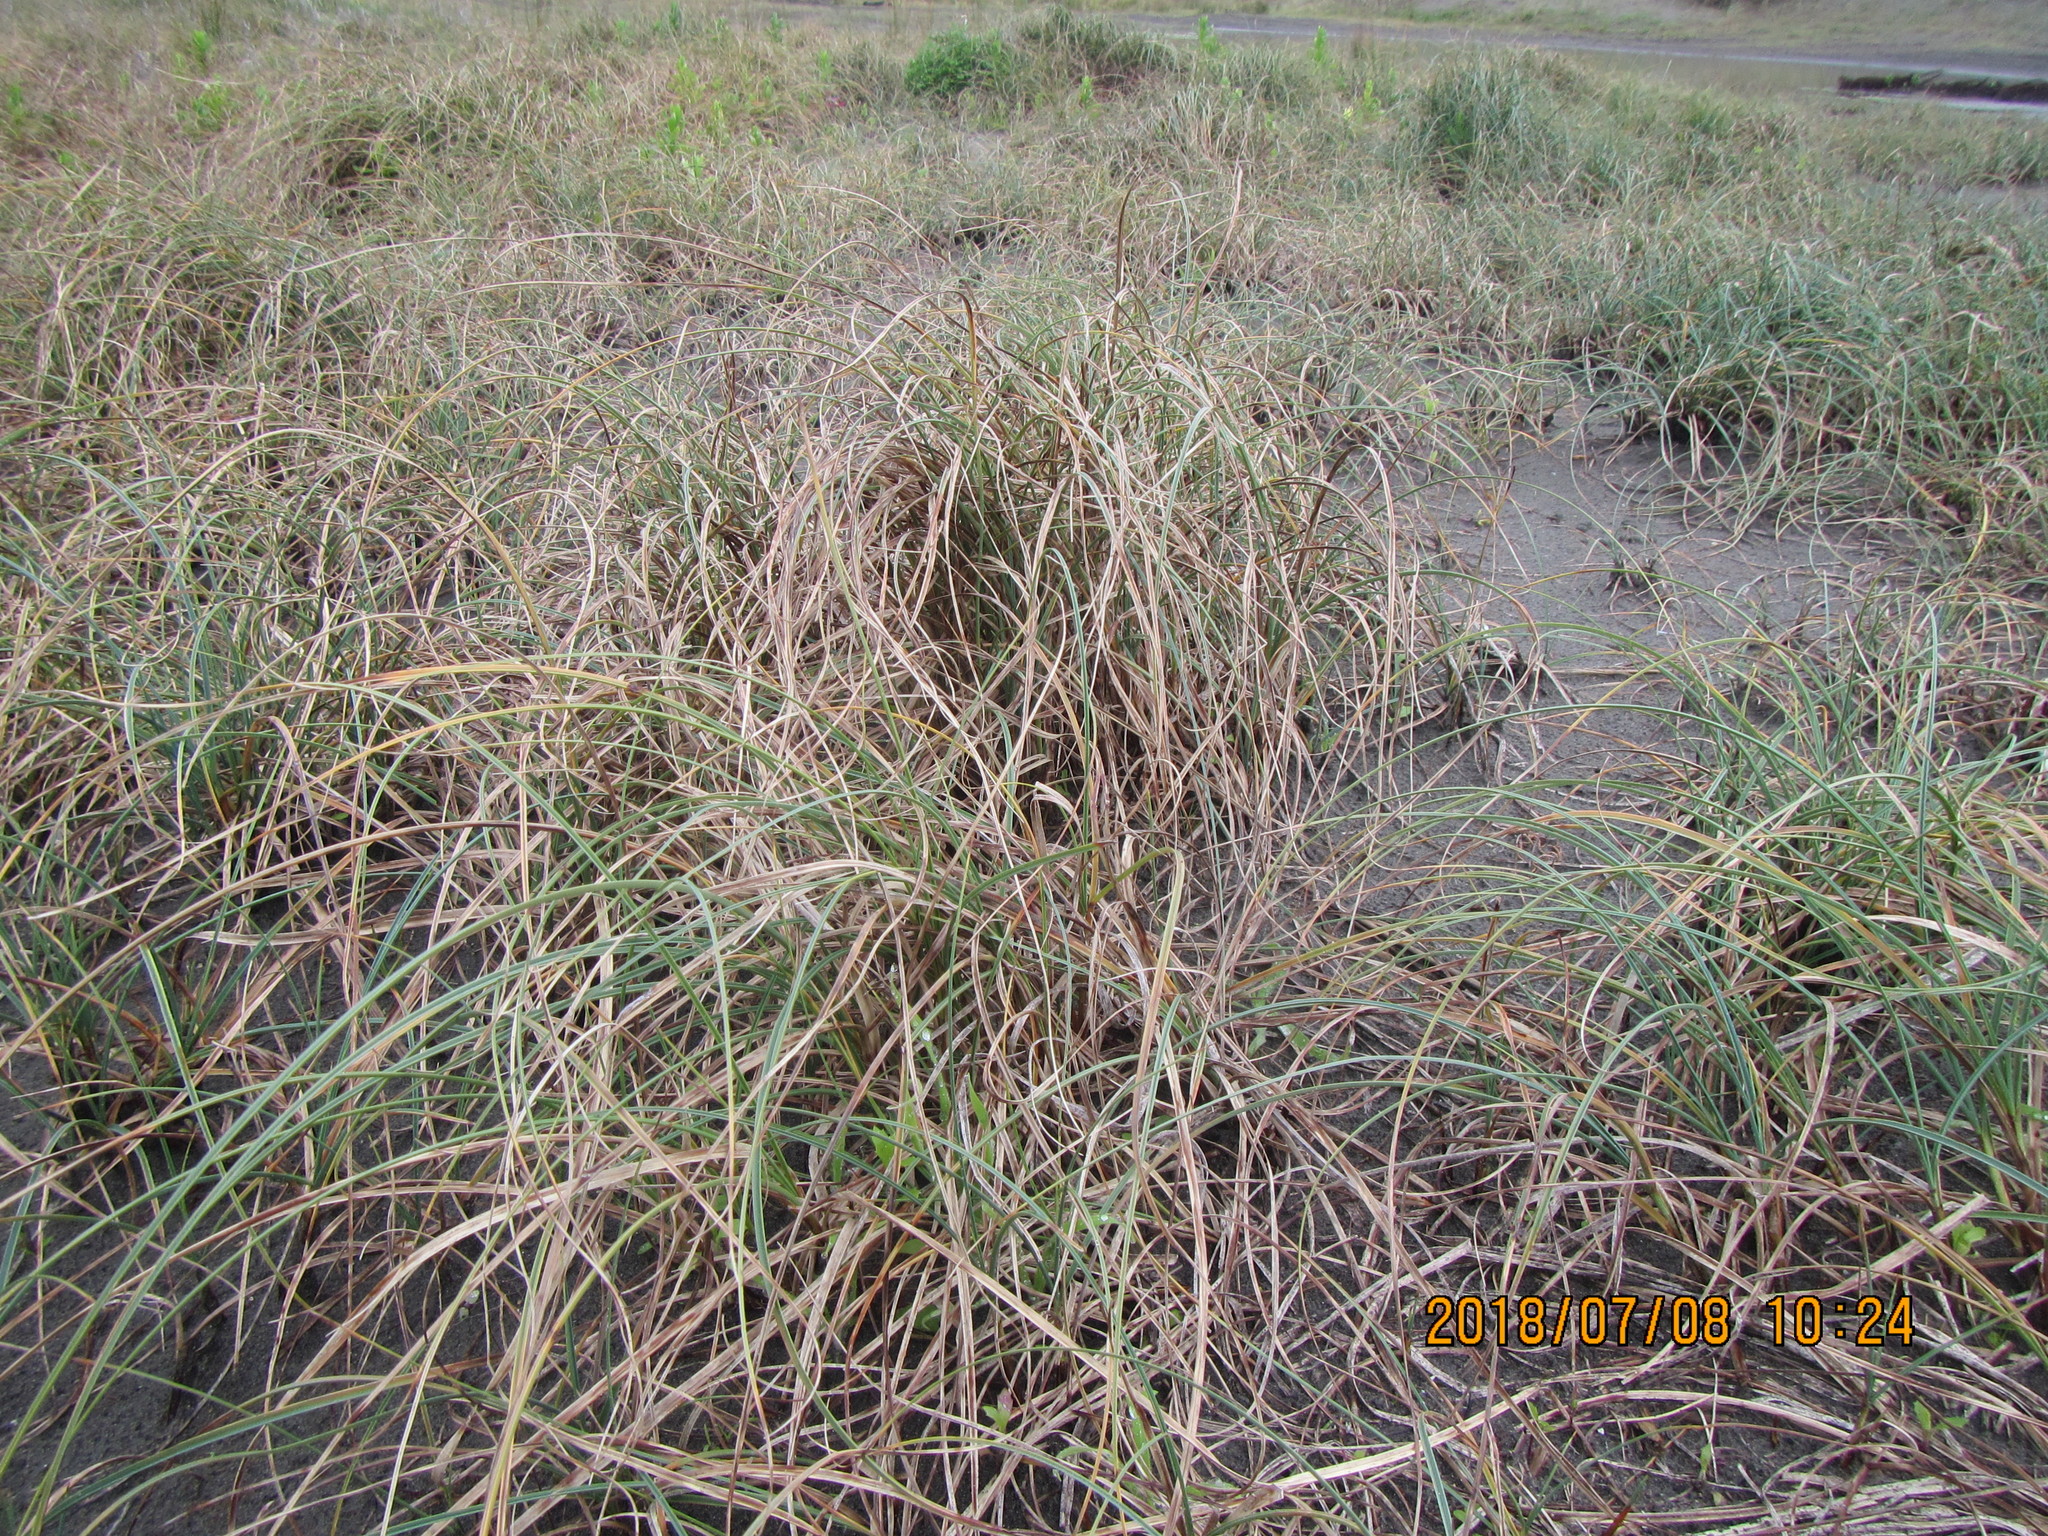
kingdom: Plantae
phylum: Tracheophyta
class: Liliopsida
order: Poales
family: Cyperaceae
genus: Carex
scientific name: Carex pumila
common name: Dwarf sedge
